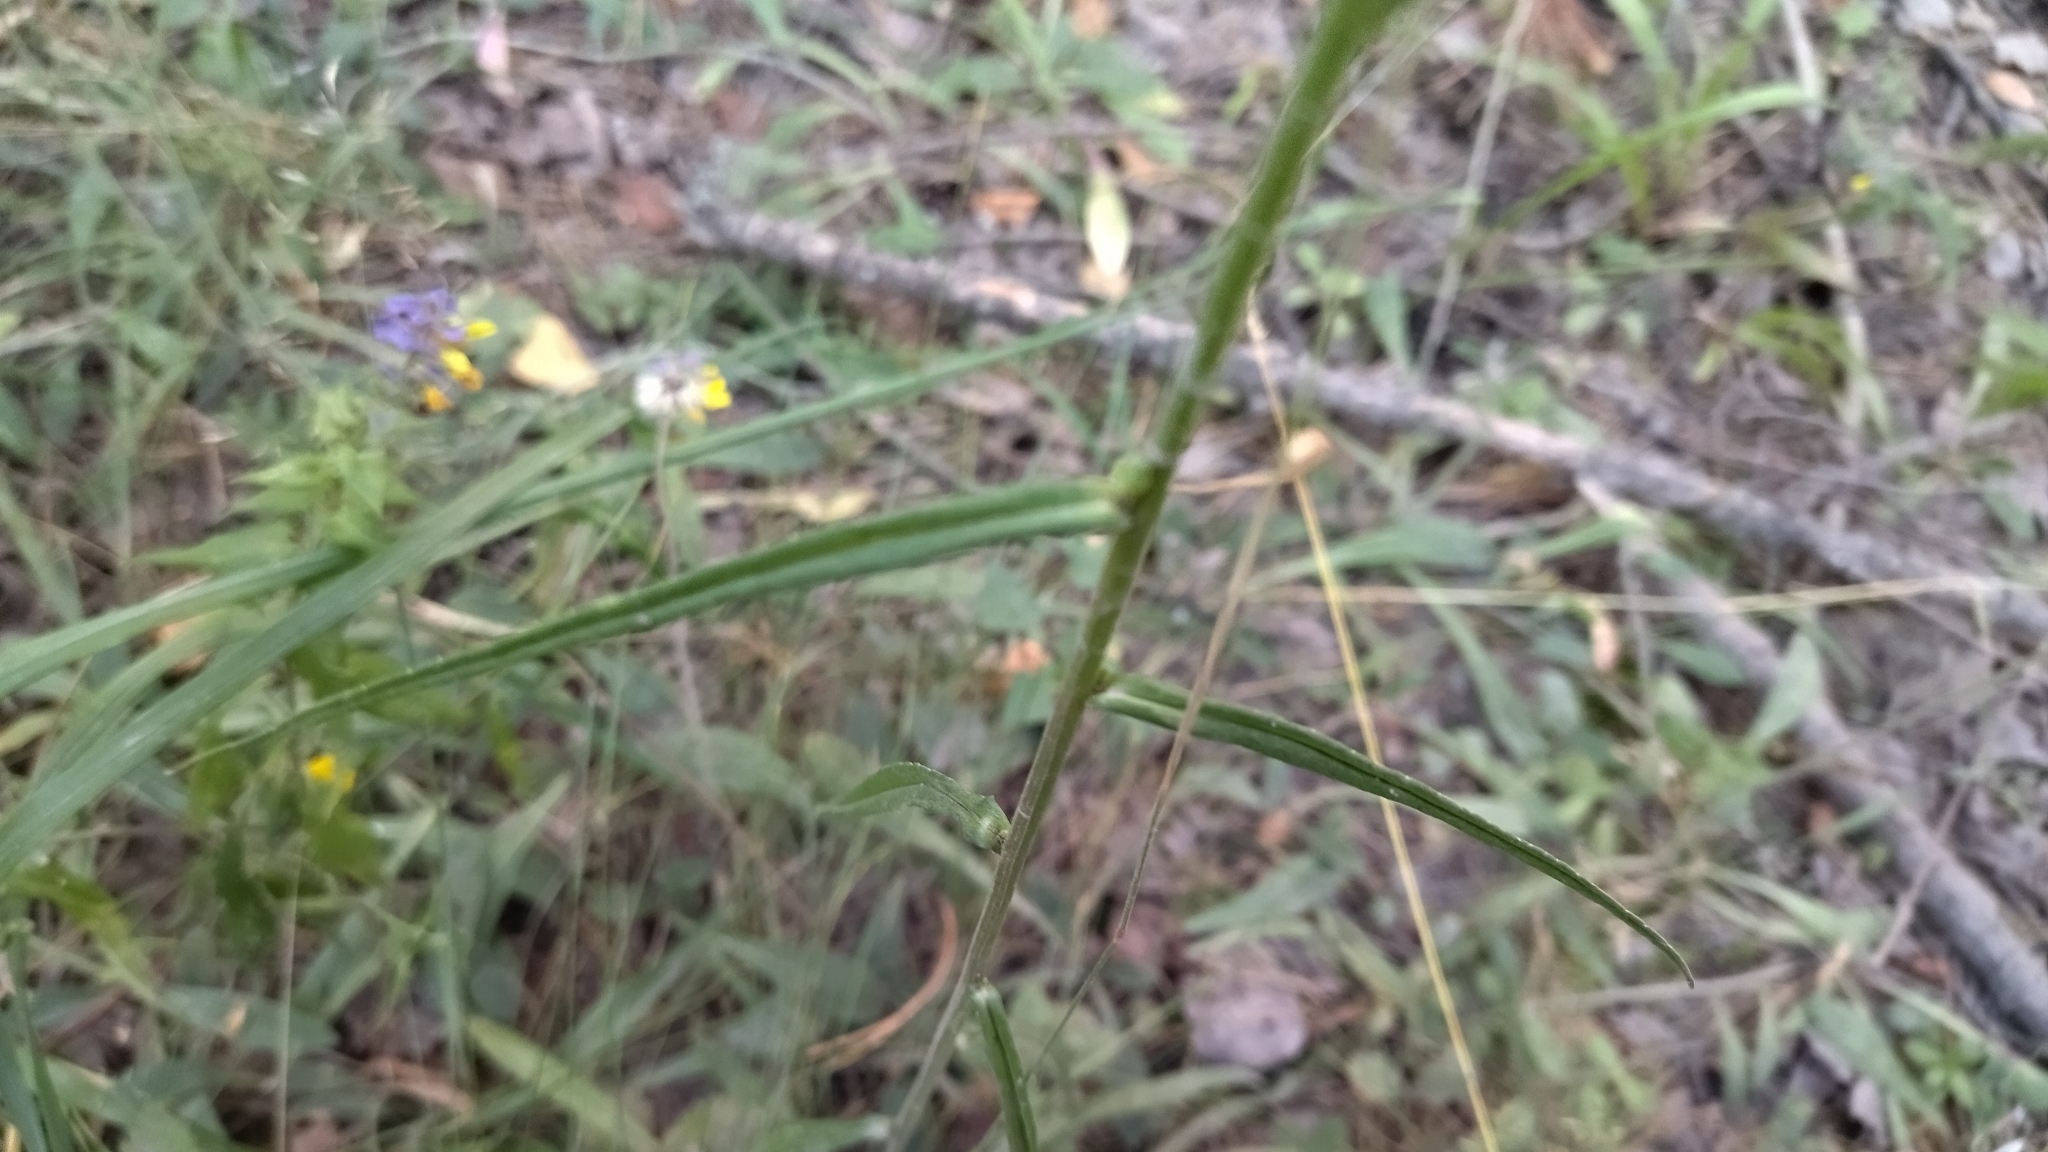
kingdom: Plantae
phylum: Tracheophyta
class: Magnoliopsida
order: Asterales
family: Campanulaceae
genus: Campanula
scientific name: Campanula persicifolia
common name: Peach-leaved bellflower
